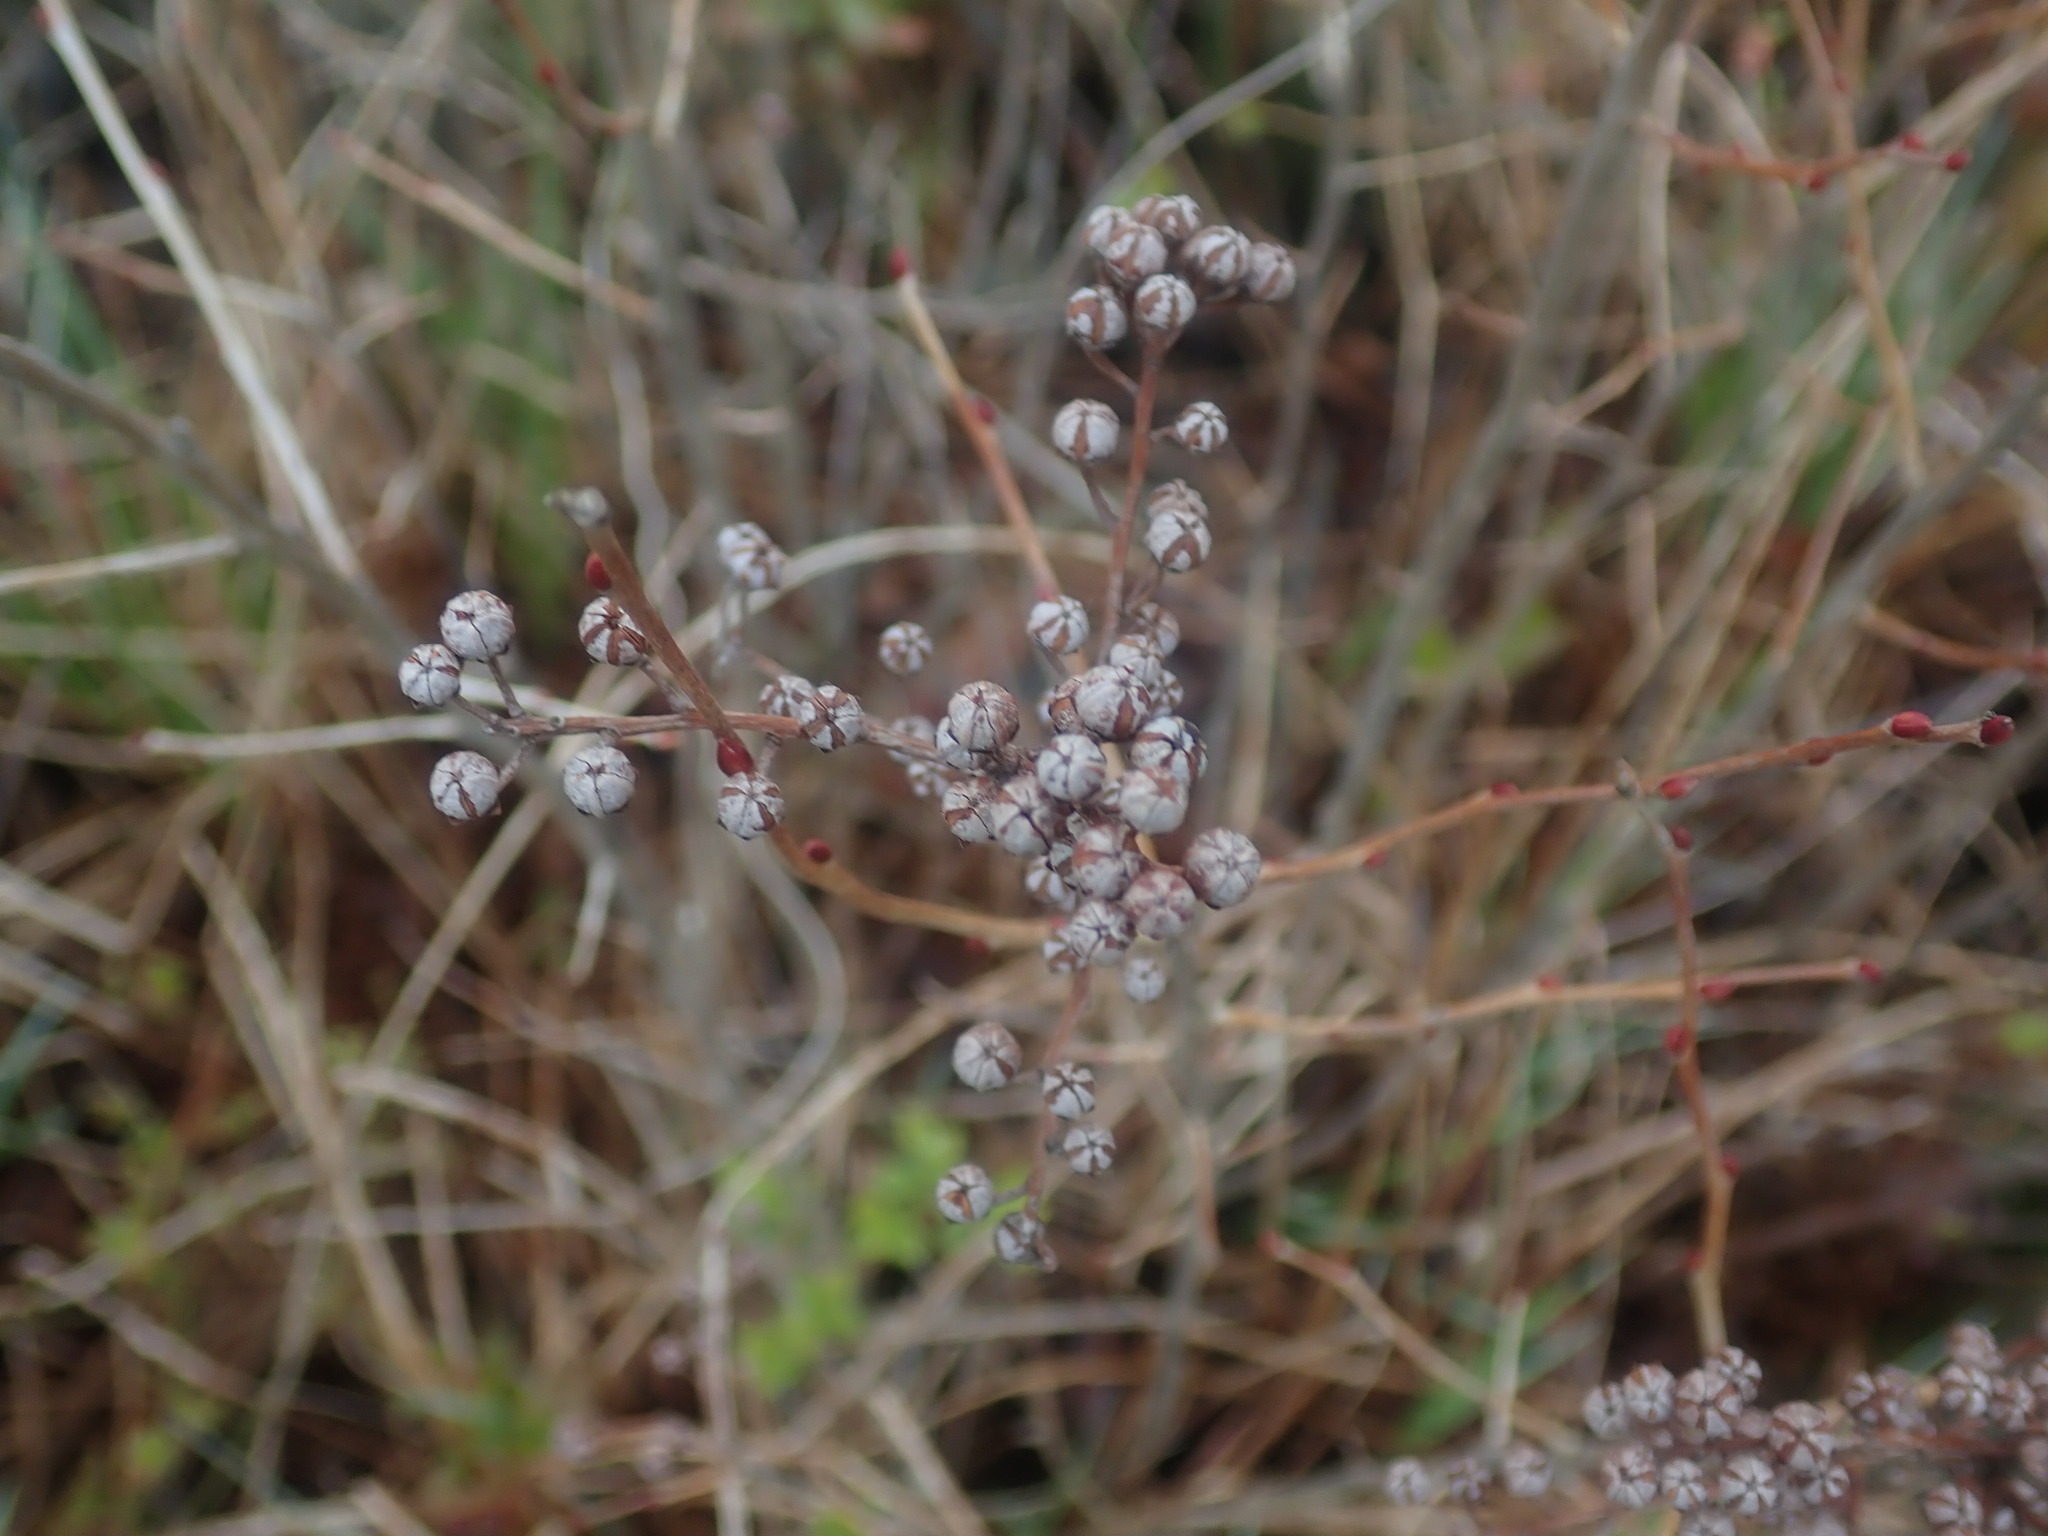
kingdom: Plantae
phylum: Tracheophyta
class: Magnoliopsida
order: Ericales
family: Ericaceae
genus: Lyonia
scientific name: Lyonia ligustrina
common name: Maleberry
